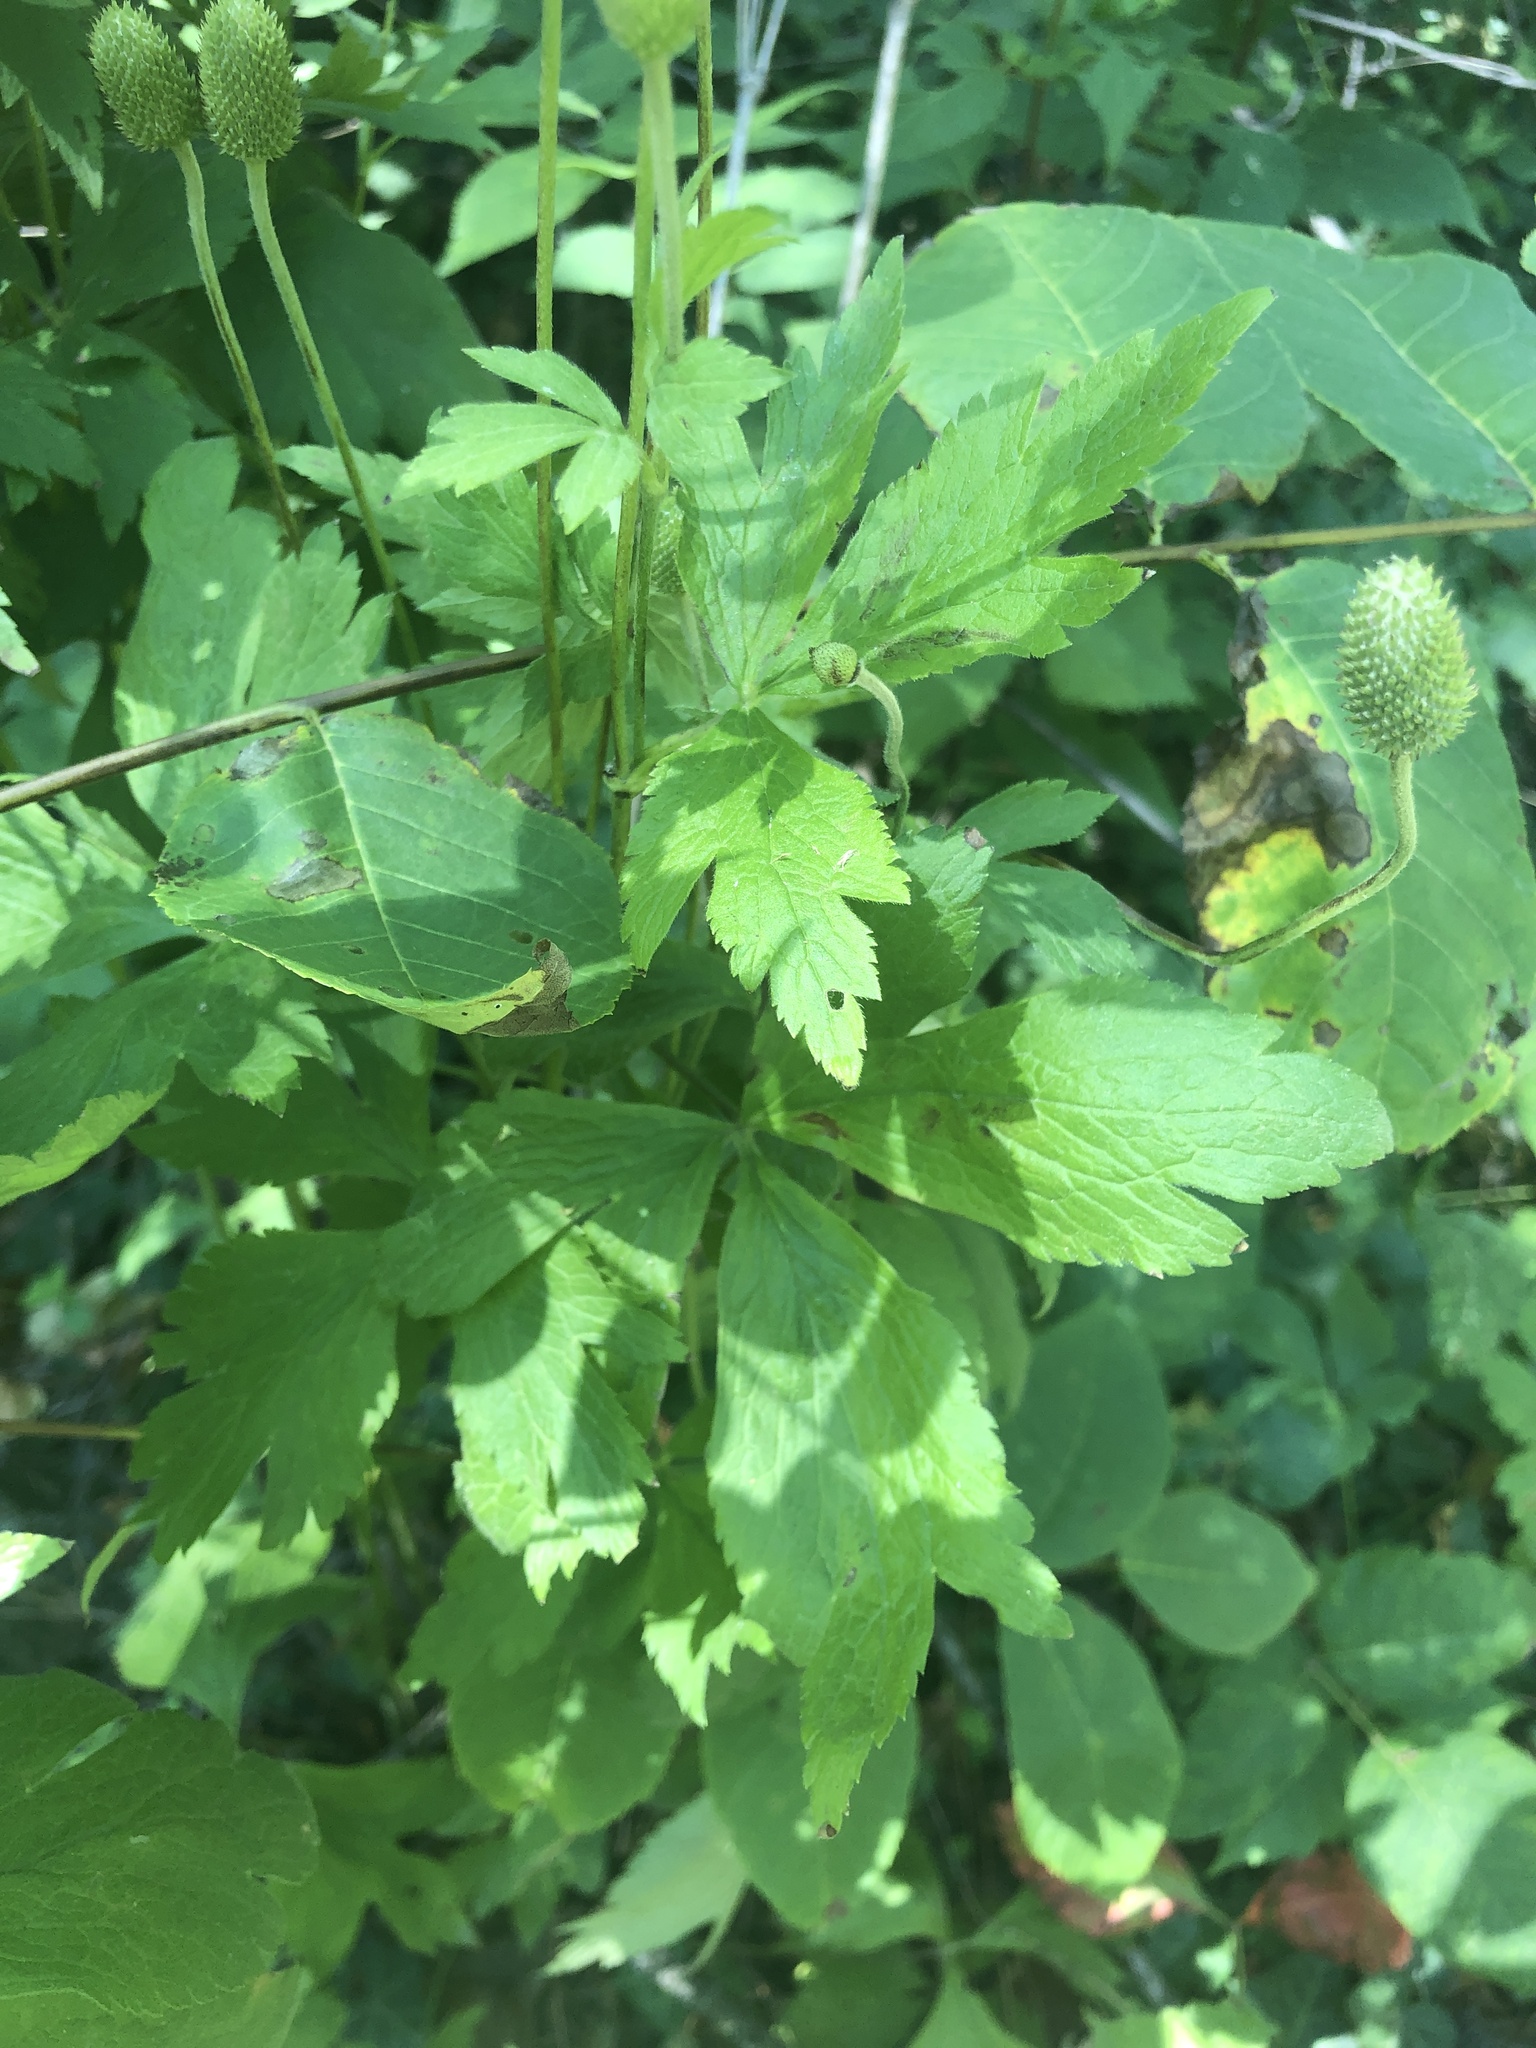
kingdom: Plantae
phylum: Tracheophyta
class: Magnoliopsida
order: Ranunculales
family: Ranunculaceae
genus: Anemone
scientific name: Anemone virginiana
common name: Tall anemone
